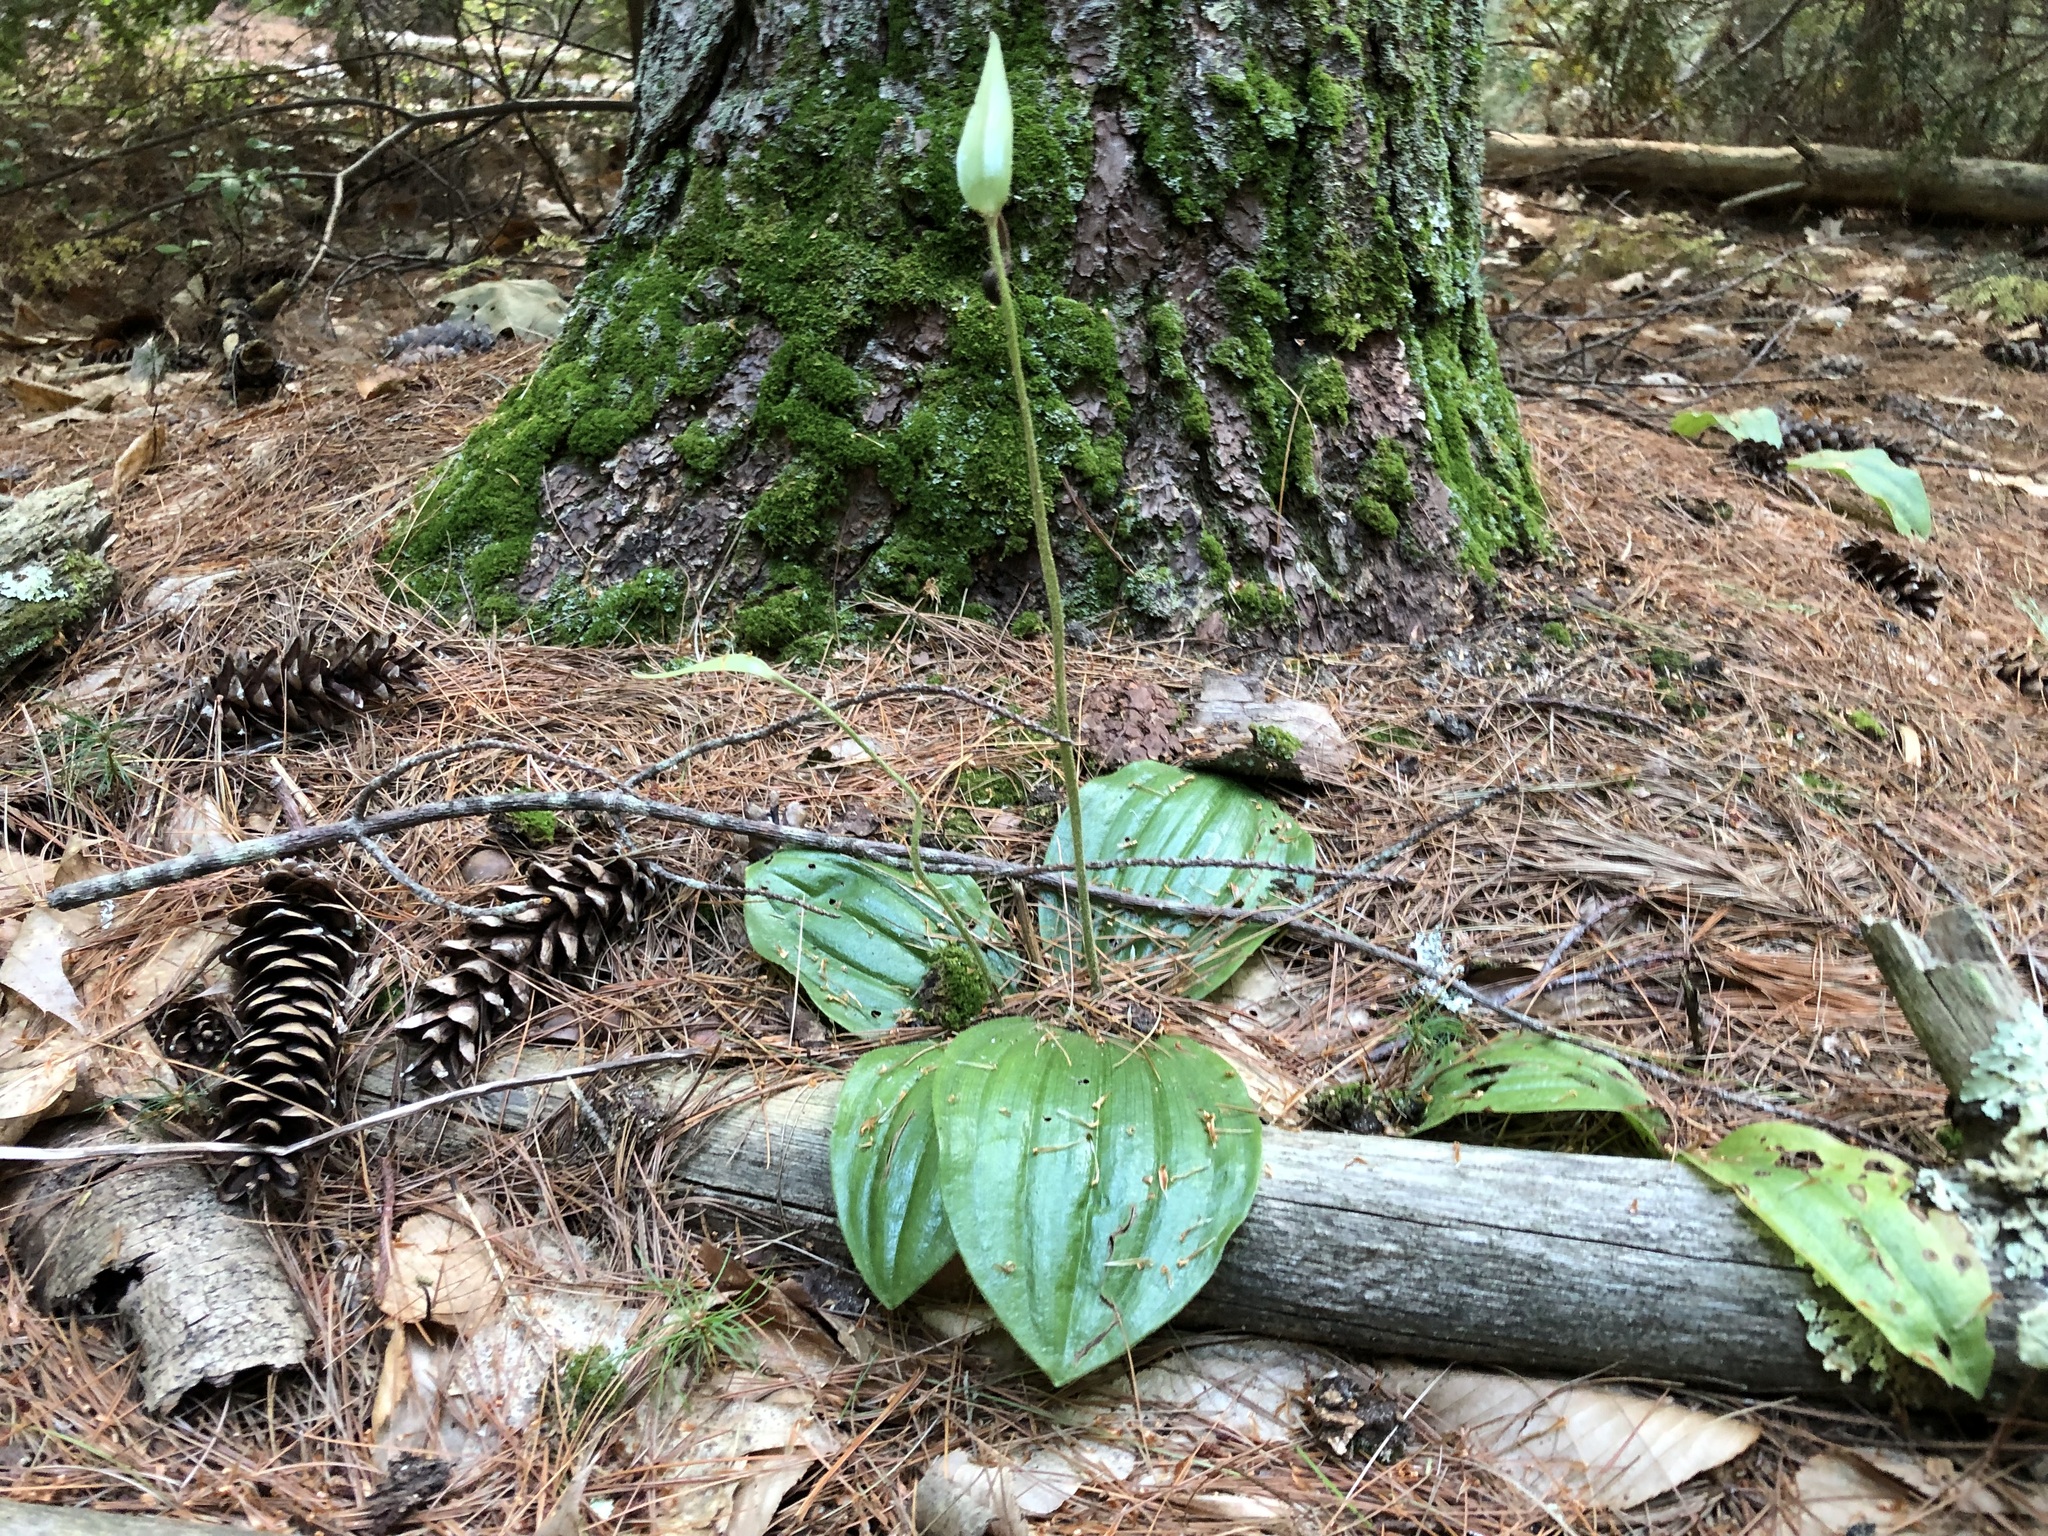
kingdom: Plantae
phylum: Tracheophyta
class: Liliopsida
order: Asparagales
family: Orchidaceae
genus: Cypripedium
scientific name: Cypripedium acaule
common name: Pink lady's-slipper
